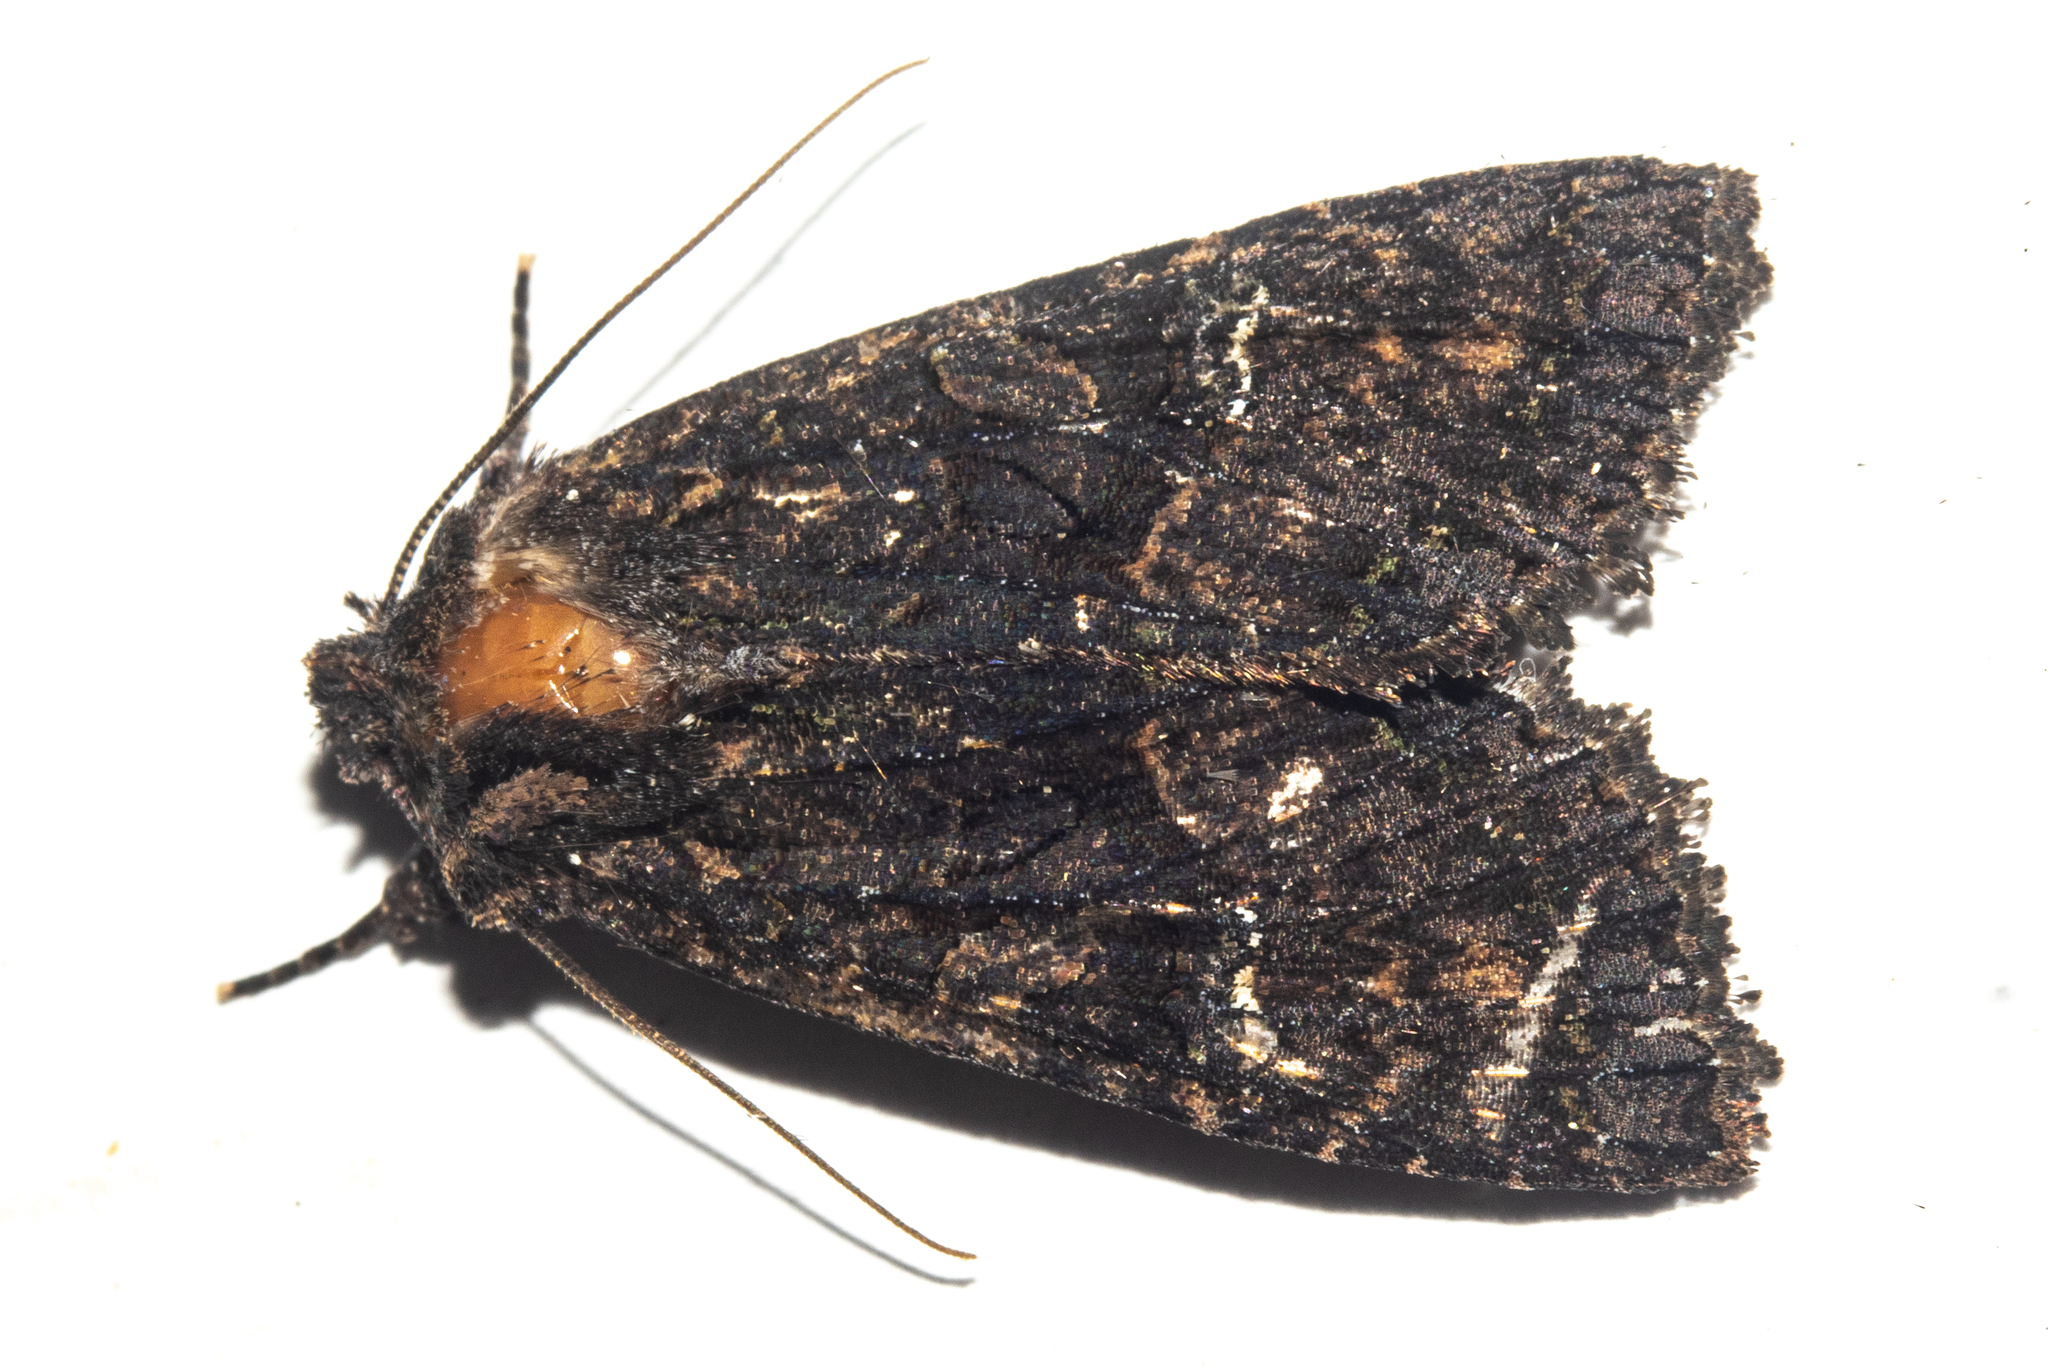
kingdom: Animalia
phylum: Arthropoda
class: Insecta
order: Lepidoptera
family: Noctuidae
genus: Meterana
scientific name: Meterana ochthistis
